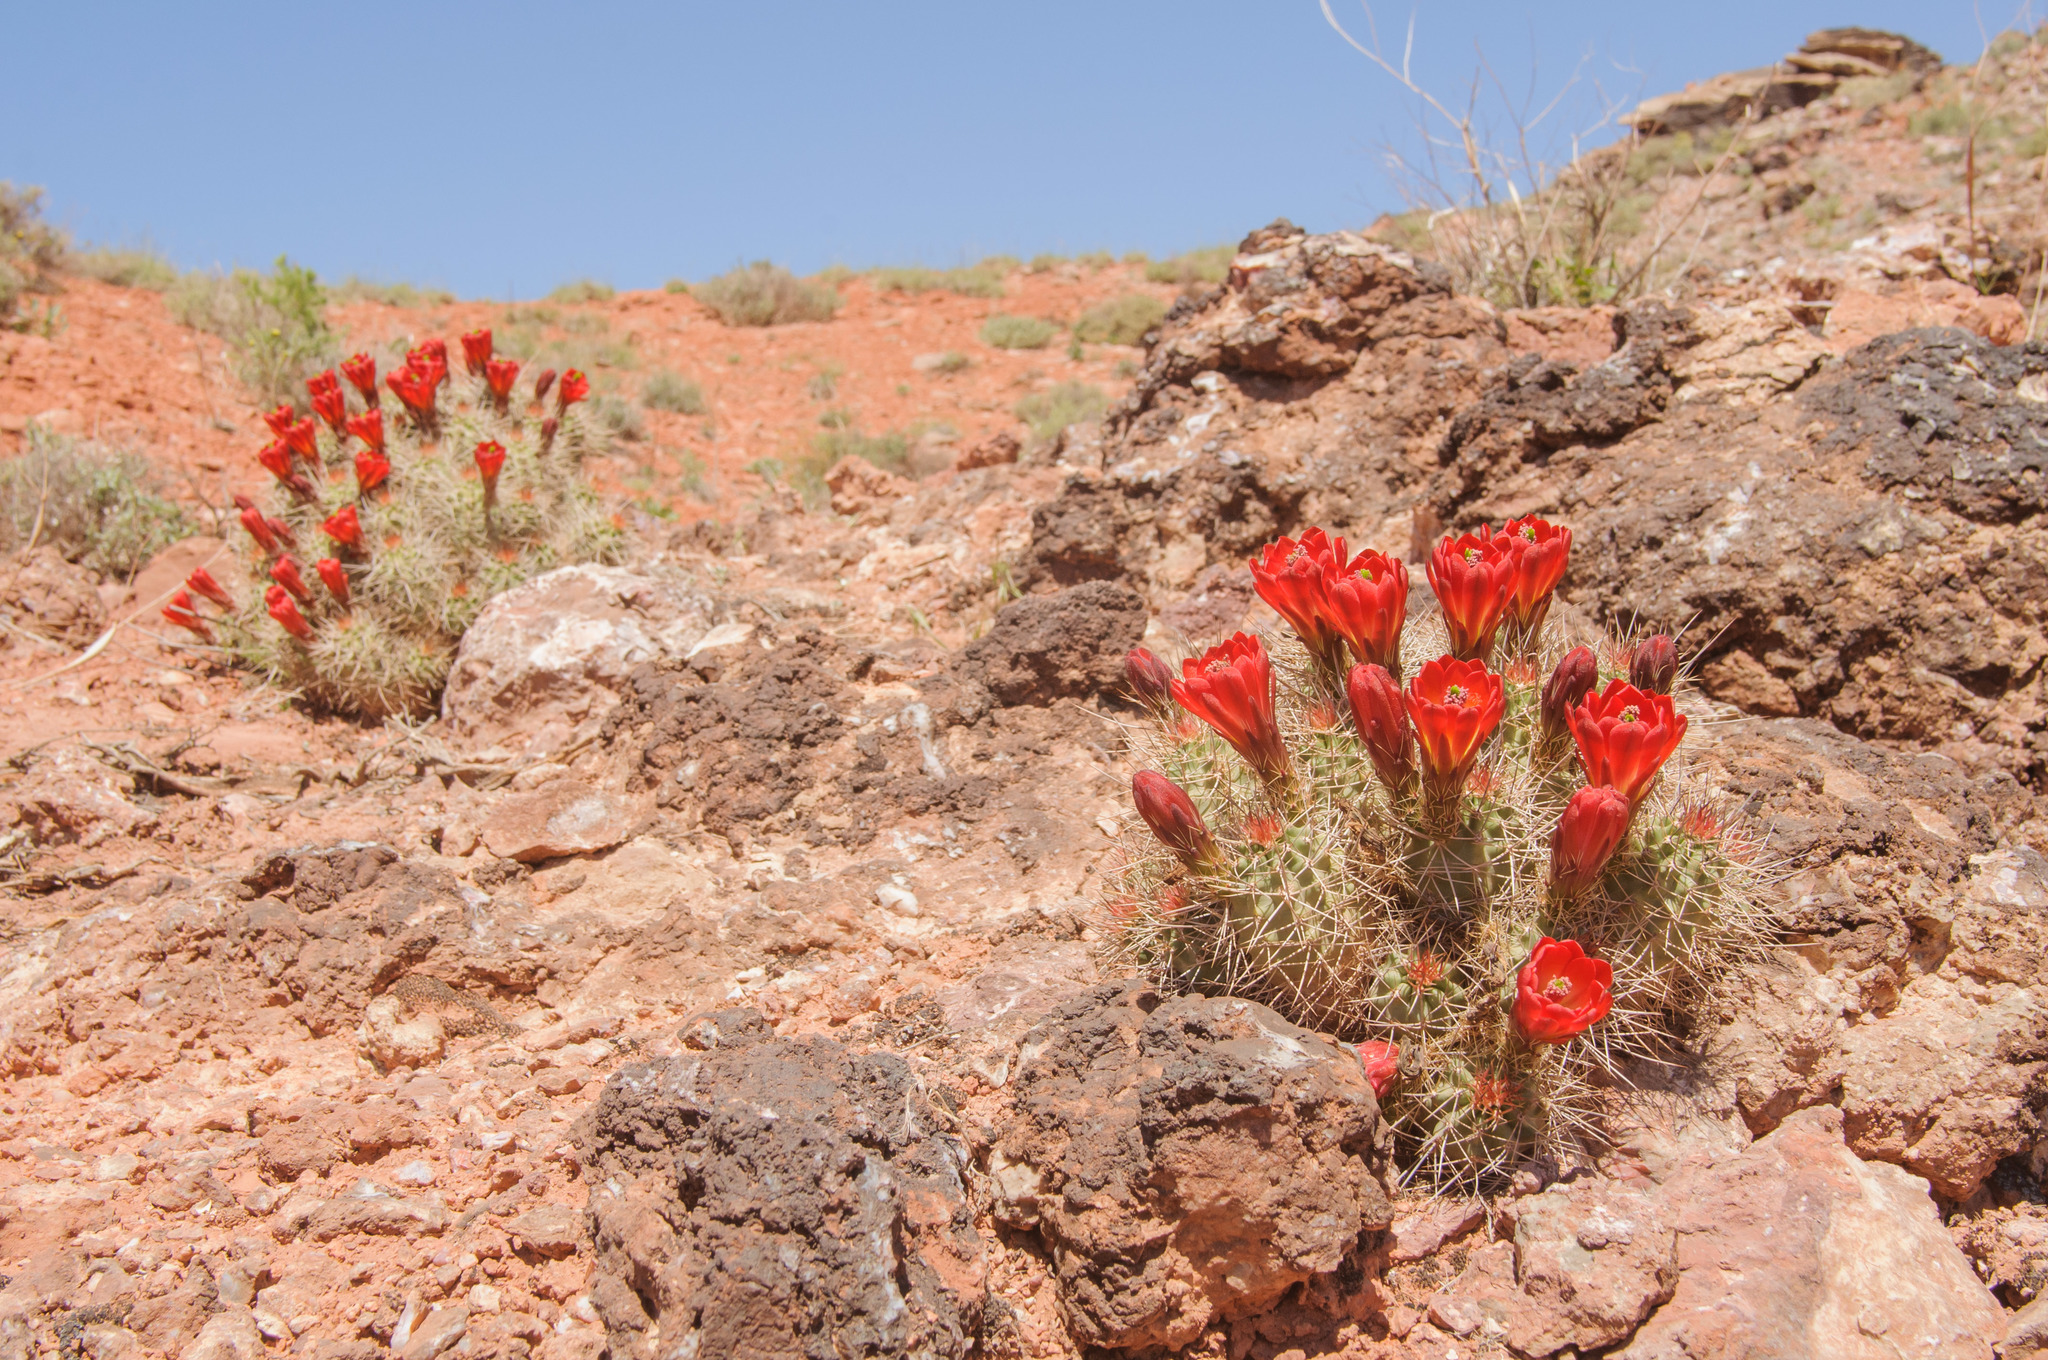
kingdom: Plantae
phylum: Tracheophyta
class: Magnoliopsida
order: Caryophyllales
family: Cactaceae
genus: Echinocereus
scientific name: Echinocereus triglochidiatus
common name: Claretcup hedgehog
